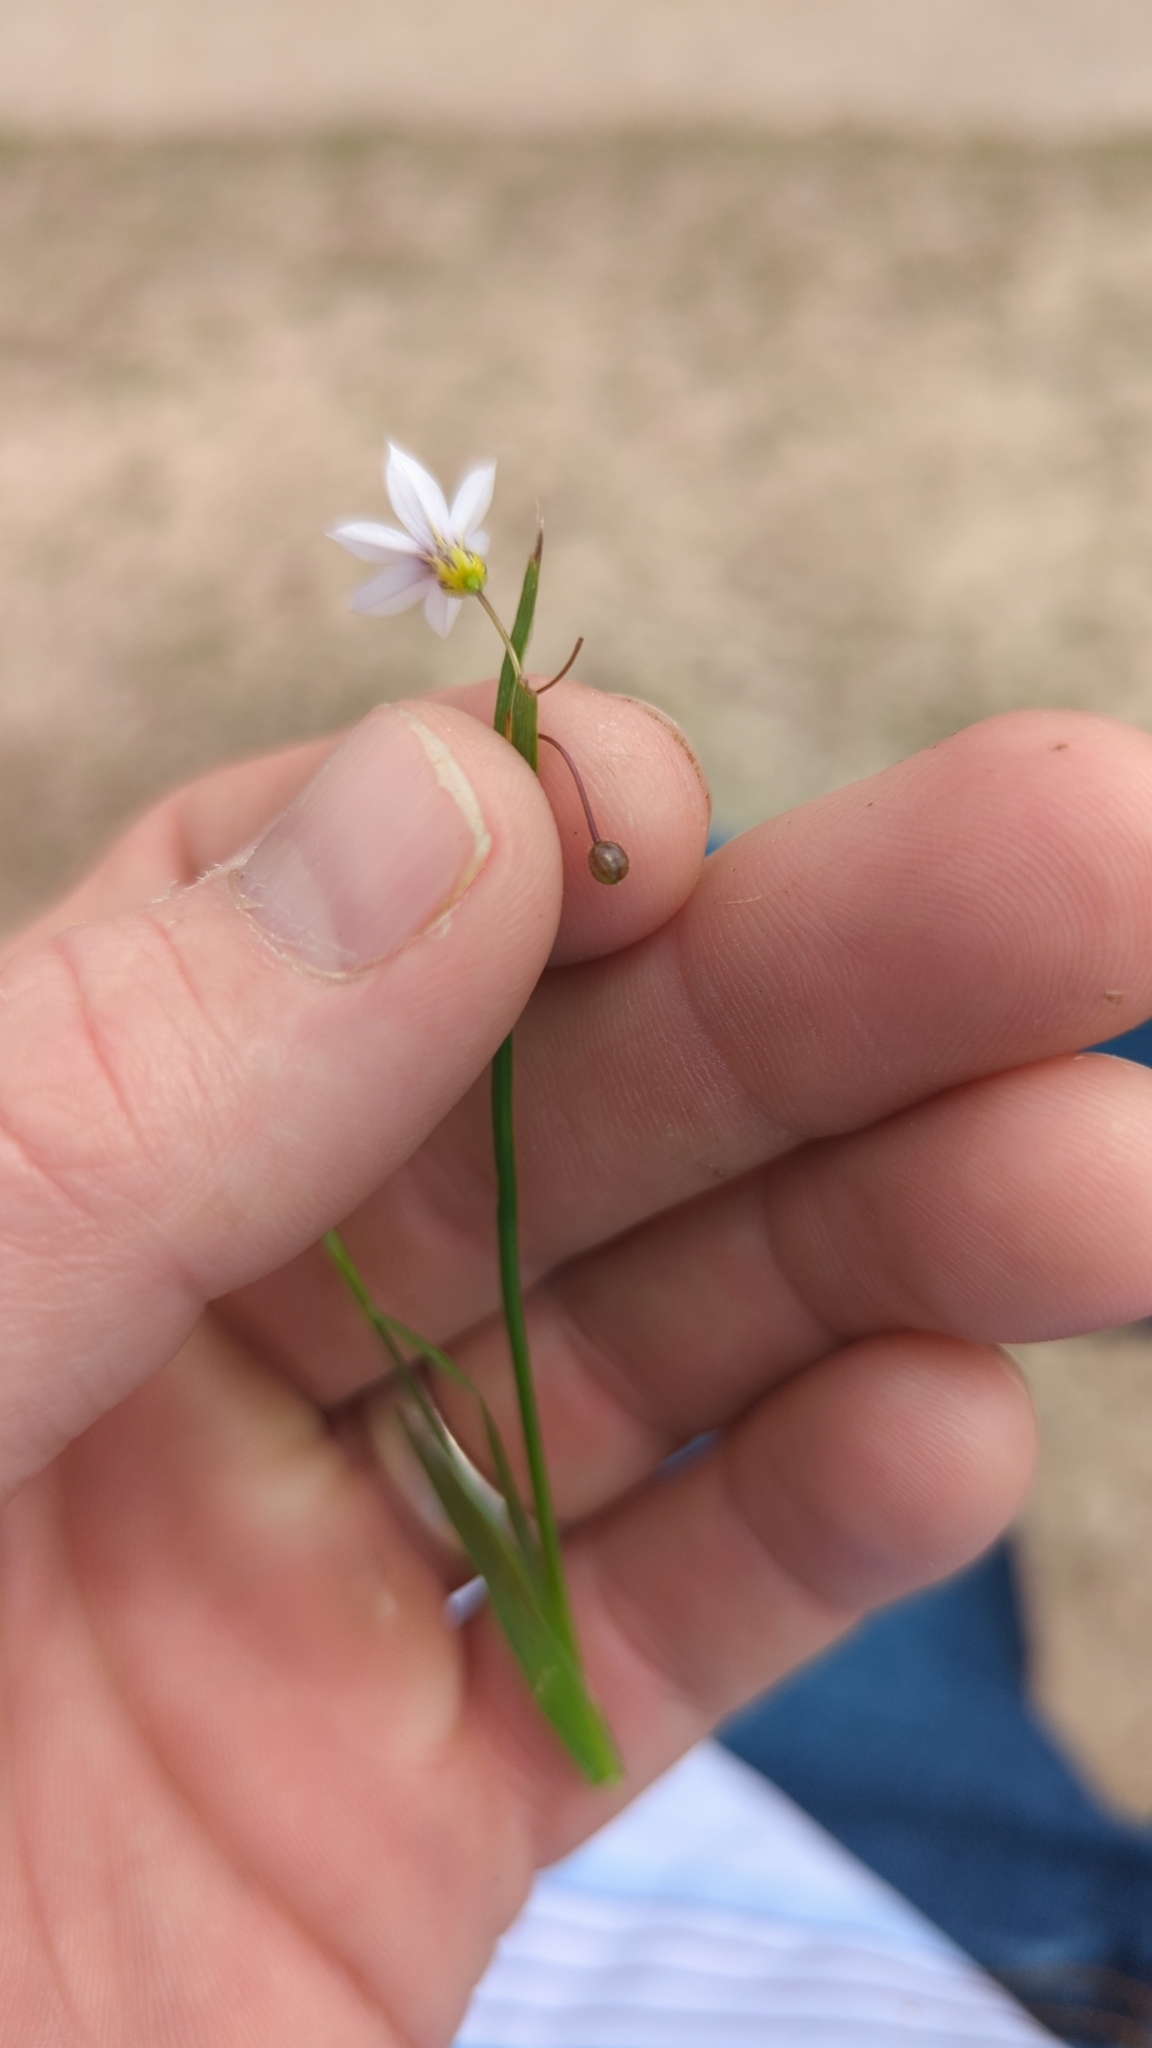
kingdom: Plantae
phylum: Tracheophyta
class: Liliopsida
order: Asparagales
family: Iridaceae
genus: Sisyrinchium
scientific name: Sisyrinchium micranthum
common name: Bermuda pigroot
